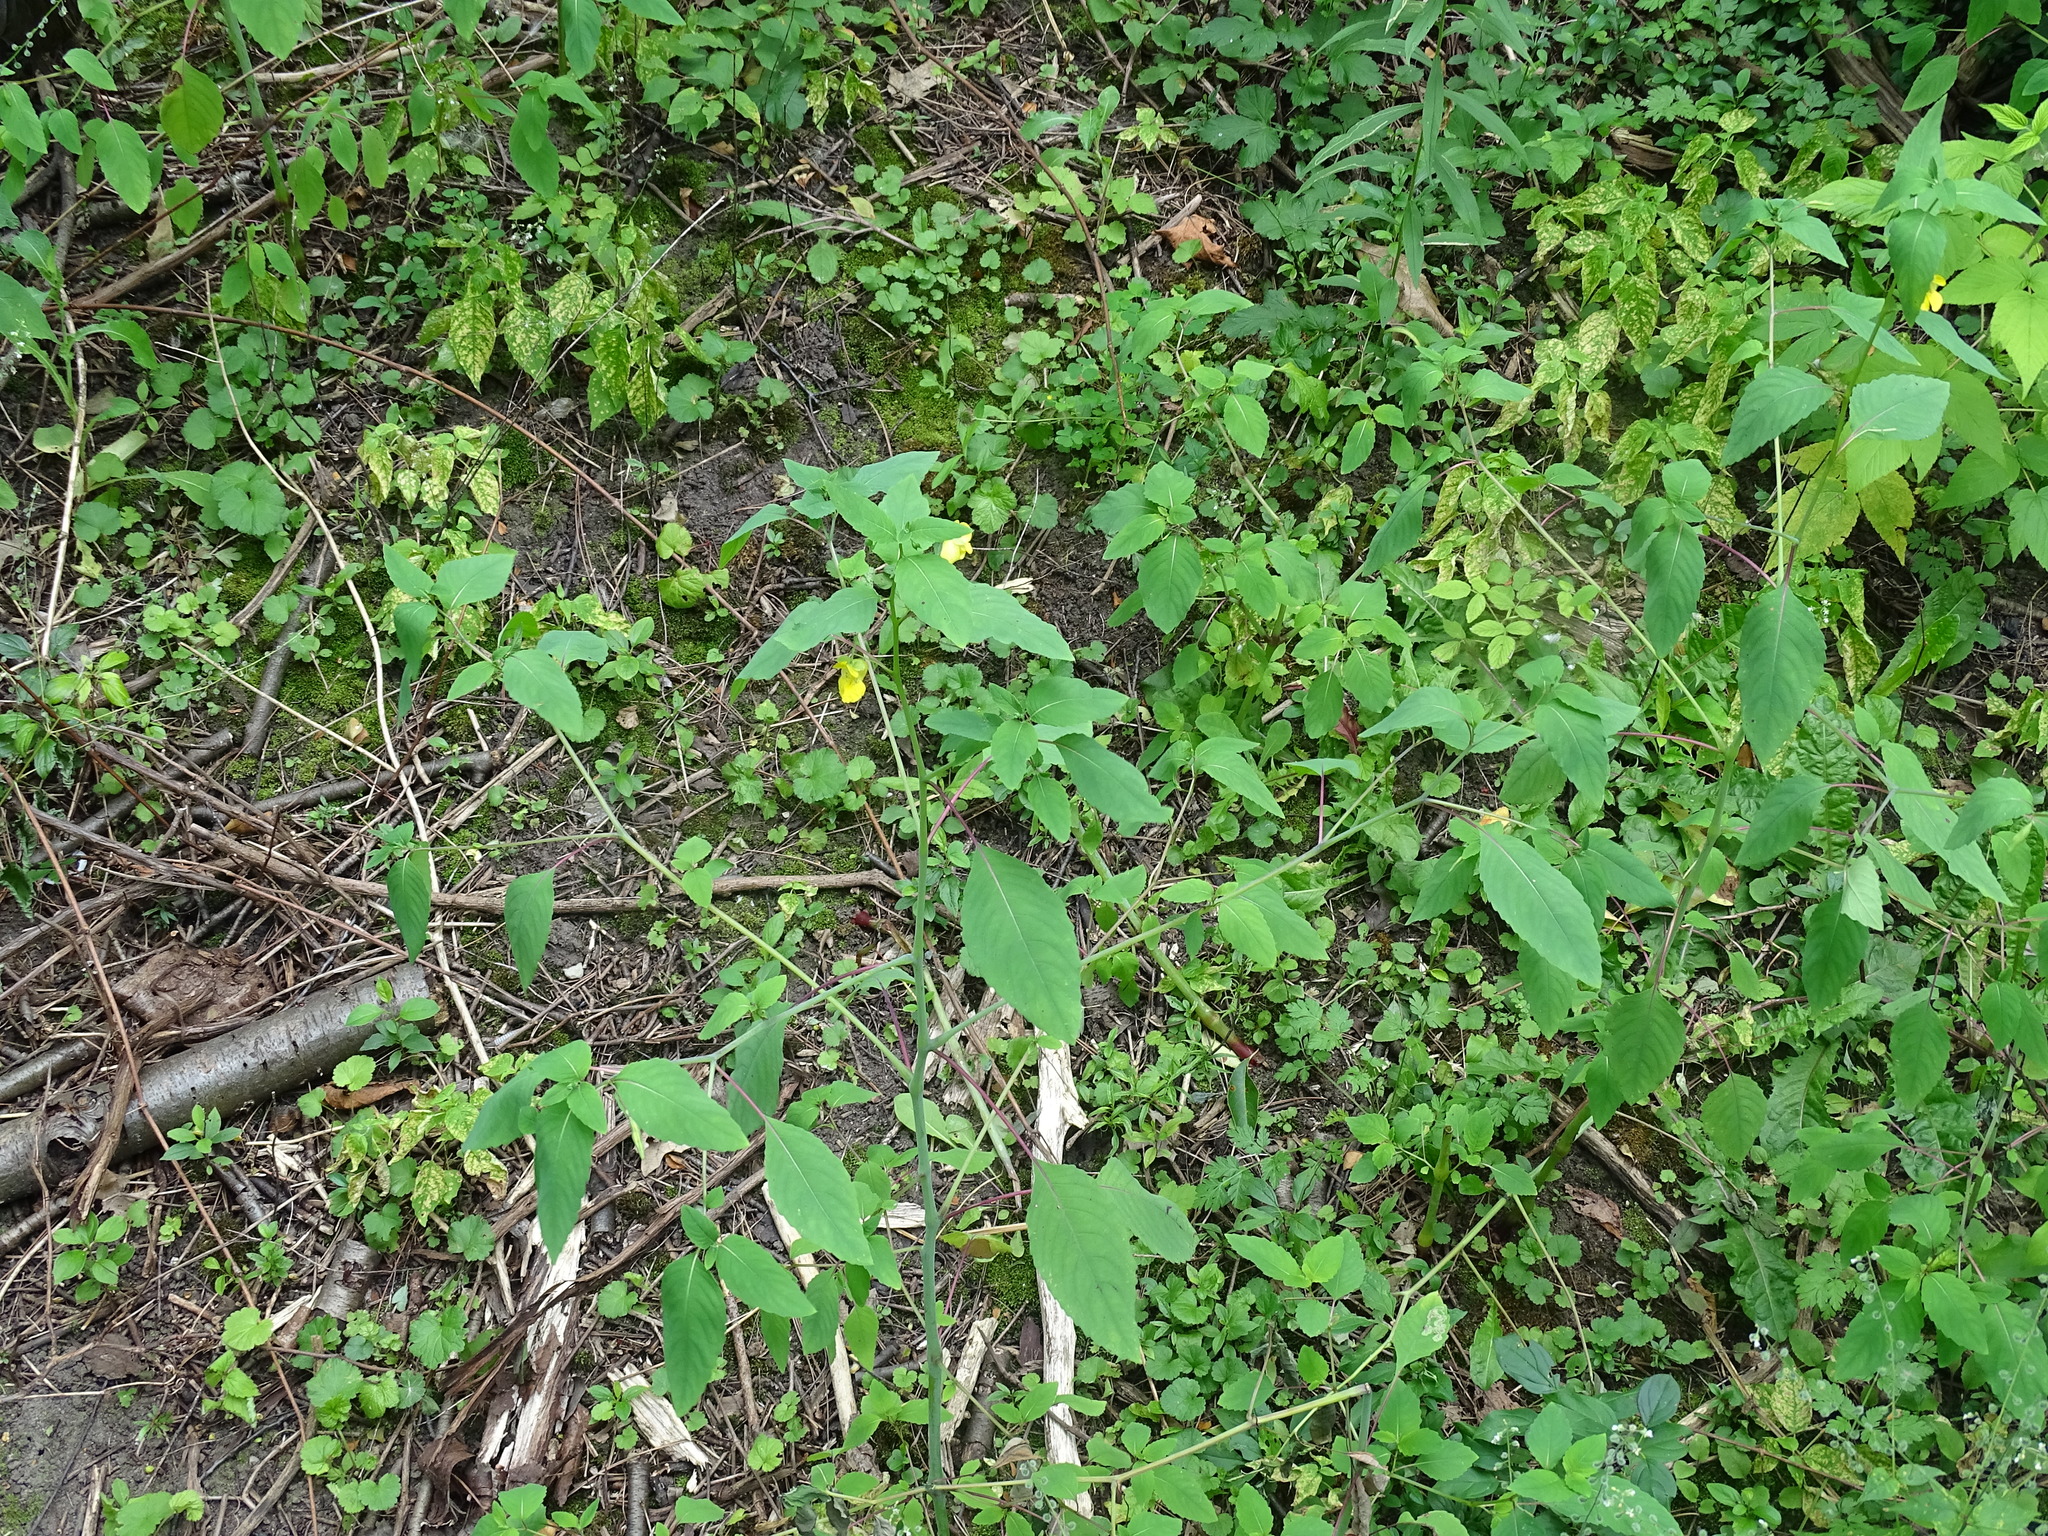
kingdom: Plantae
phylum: Tracheophyta
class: Magnoliopsida
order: Ericales
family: Balsaminaceae
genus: Impatiens
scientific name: Impatiens pallida
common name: Pale snapweed
